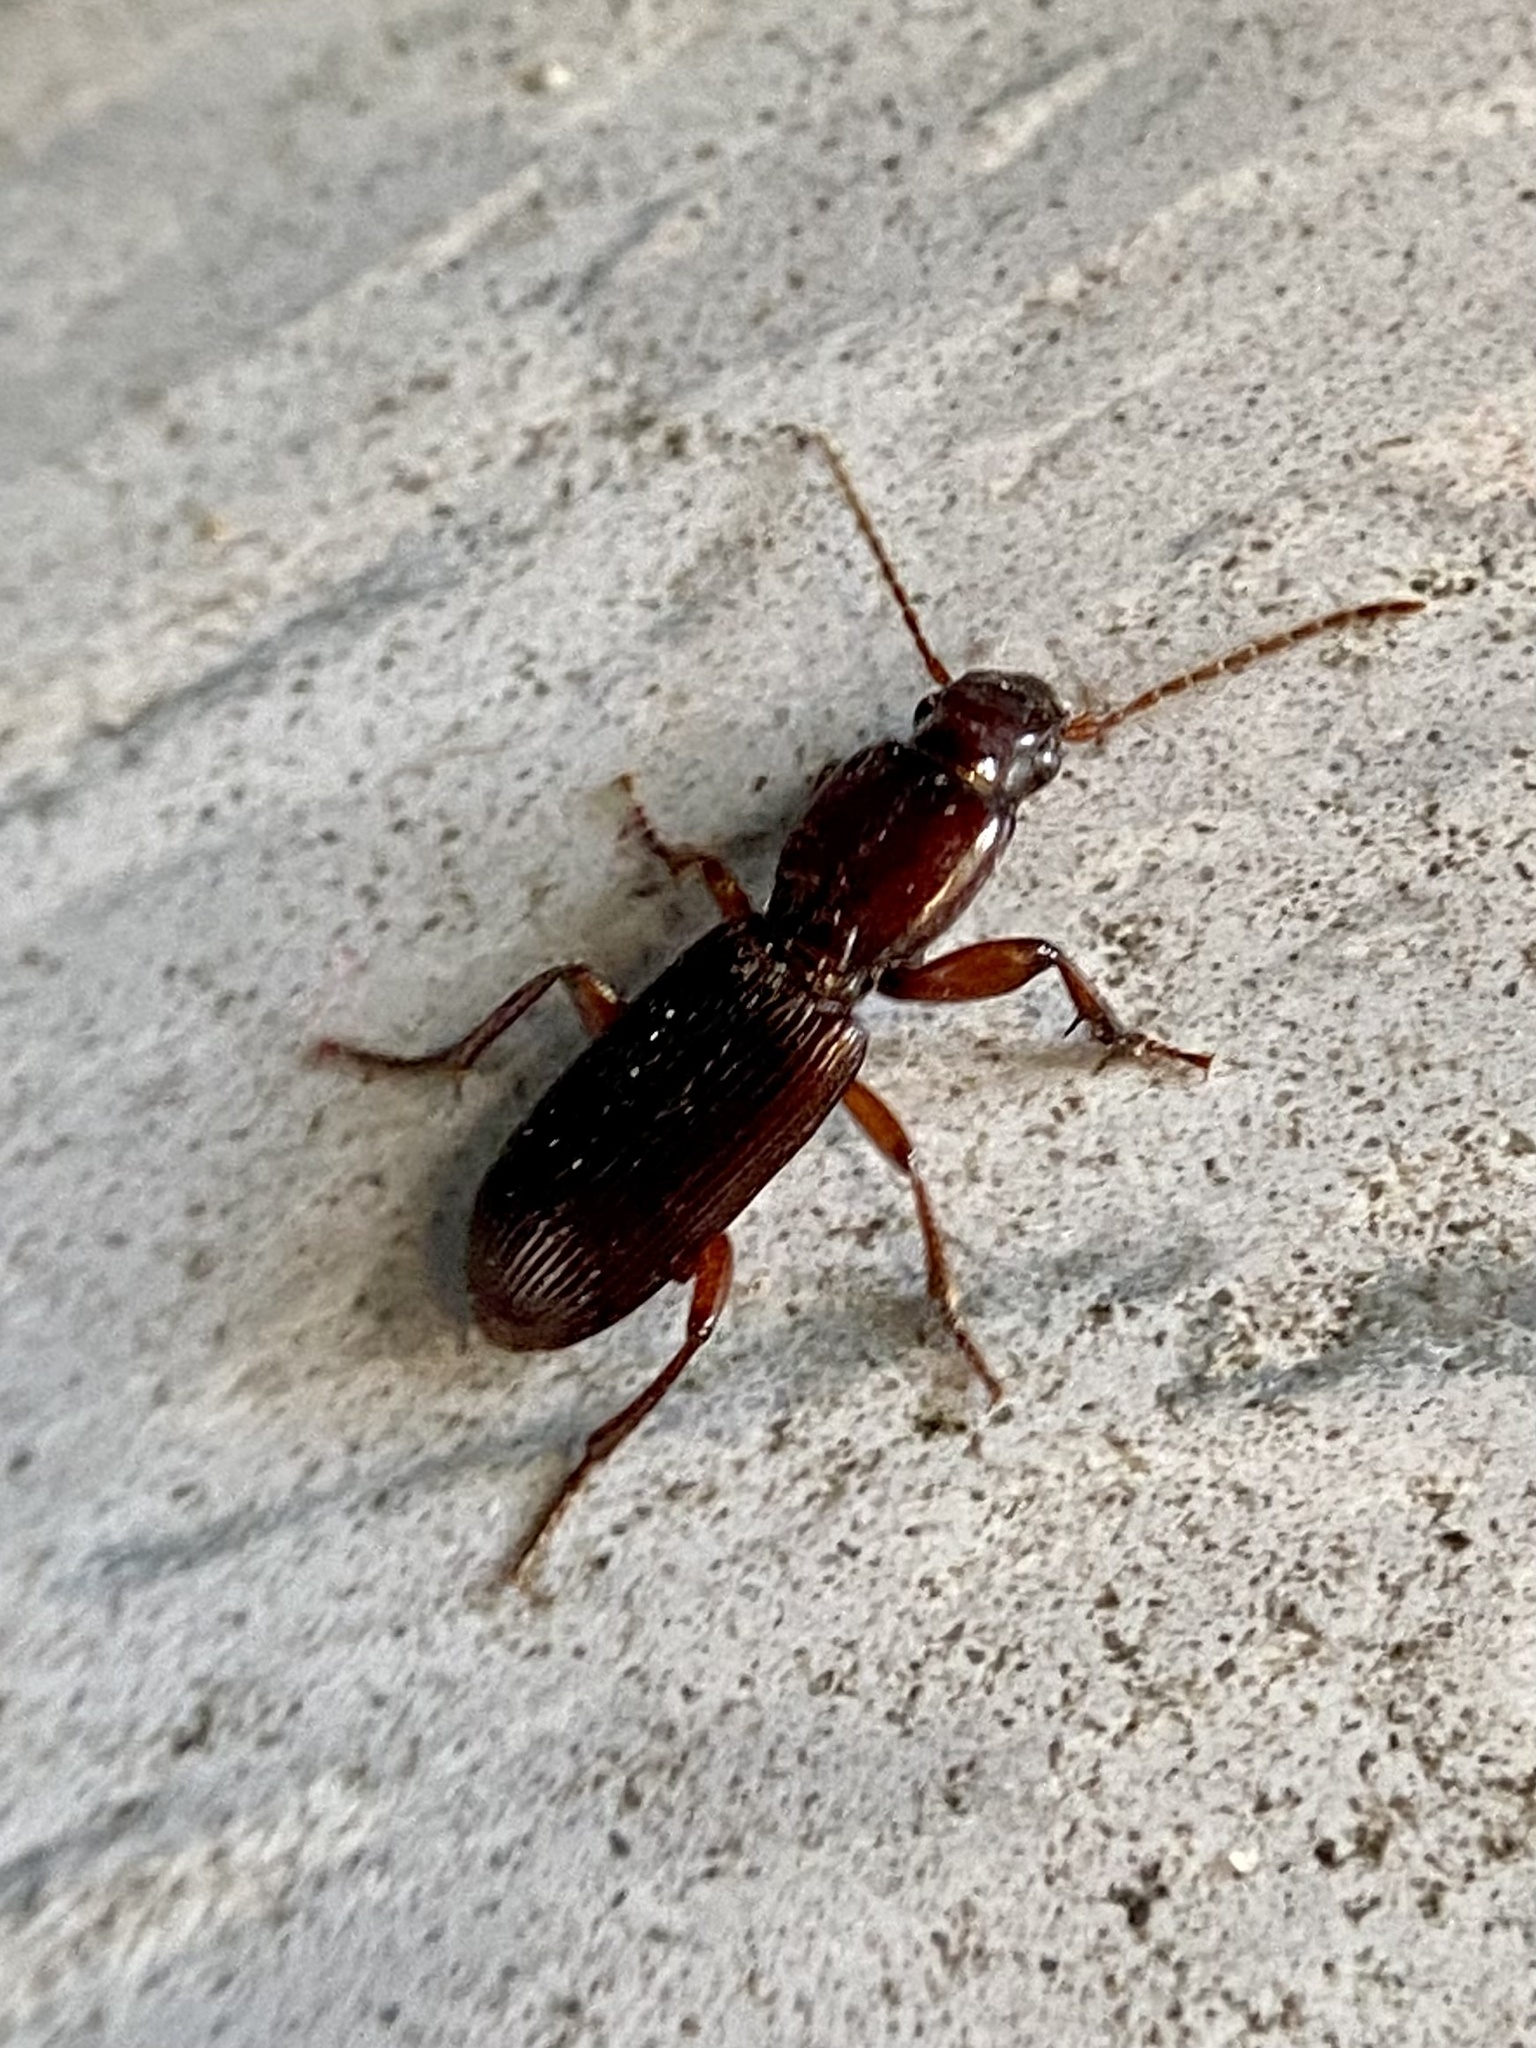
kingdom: Animalia
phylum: Arthropoda
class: Insecta
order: Coleoptera
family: Carabidae
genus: Stenomorphus
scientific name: Stenomorphus californicus
